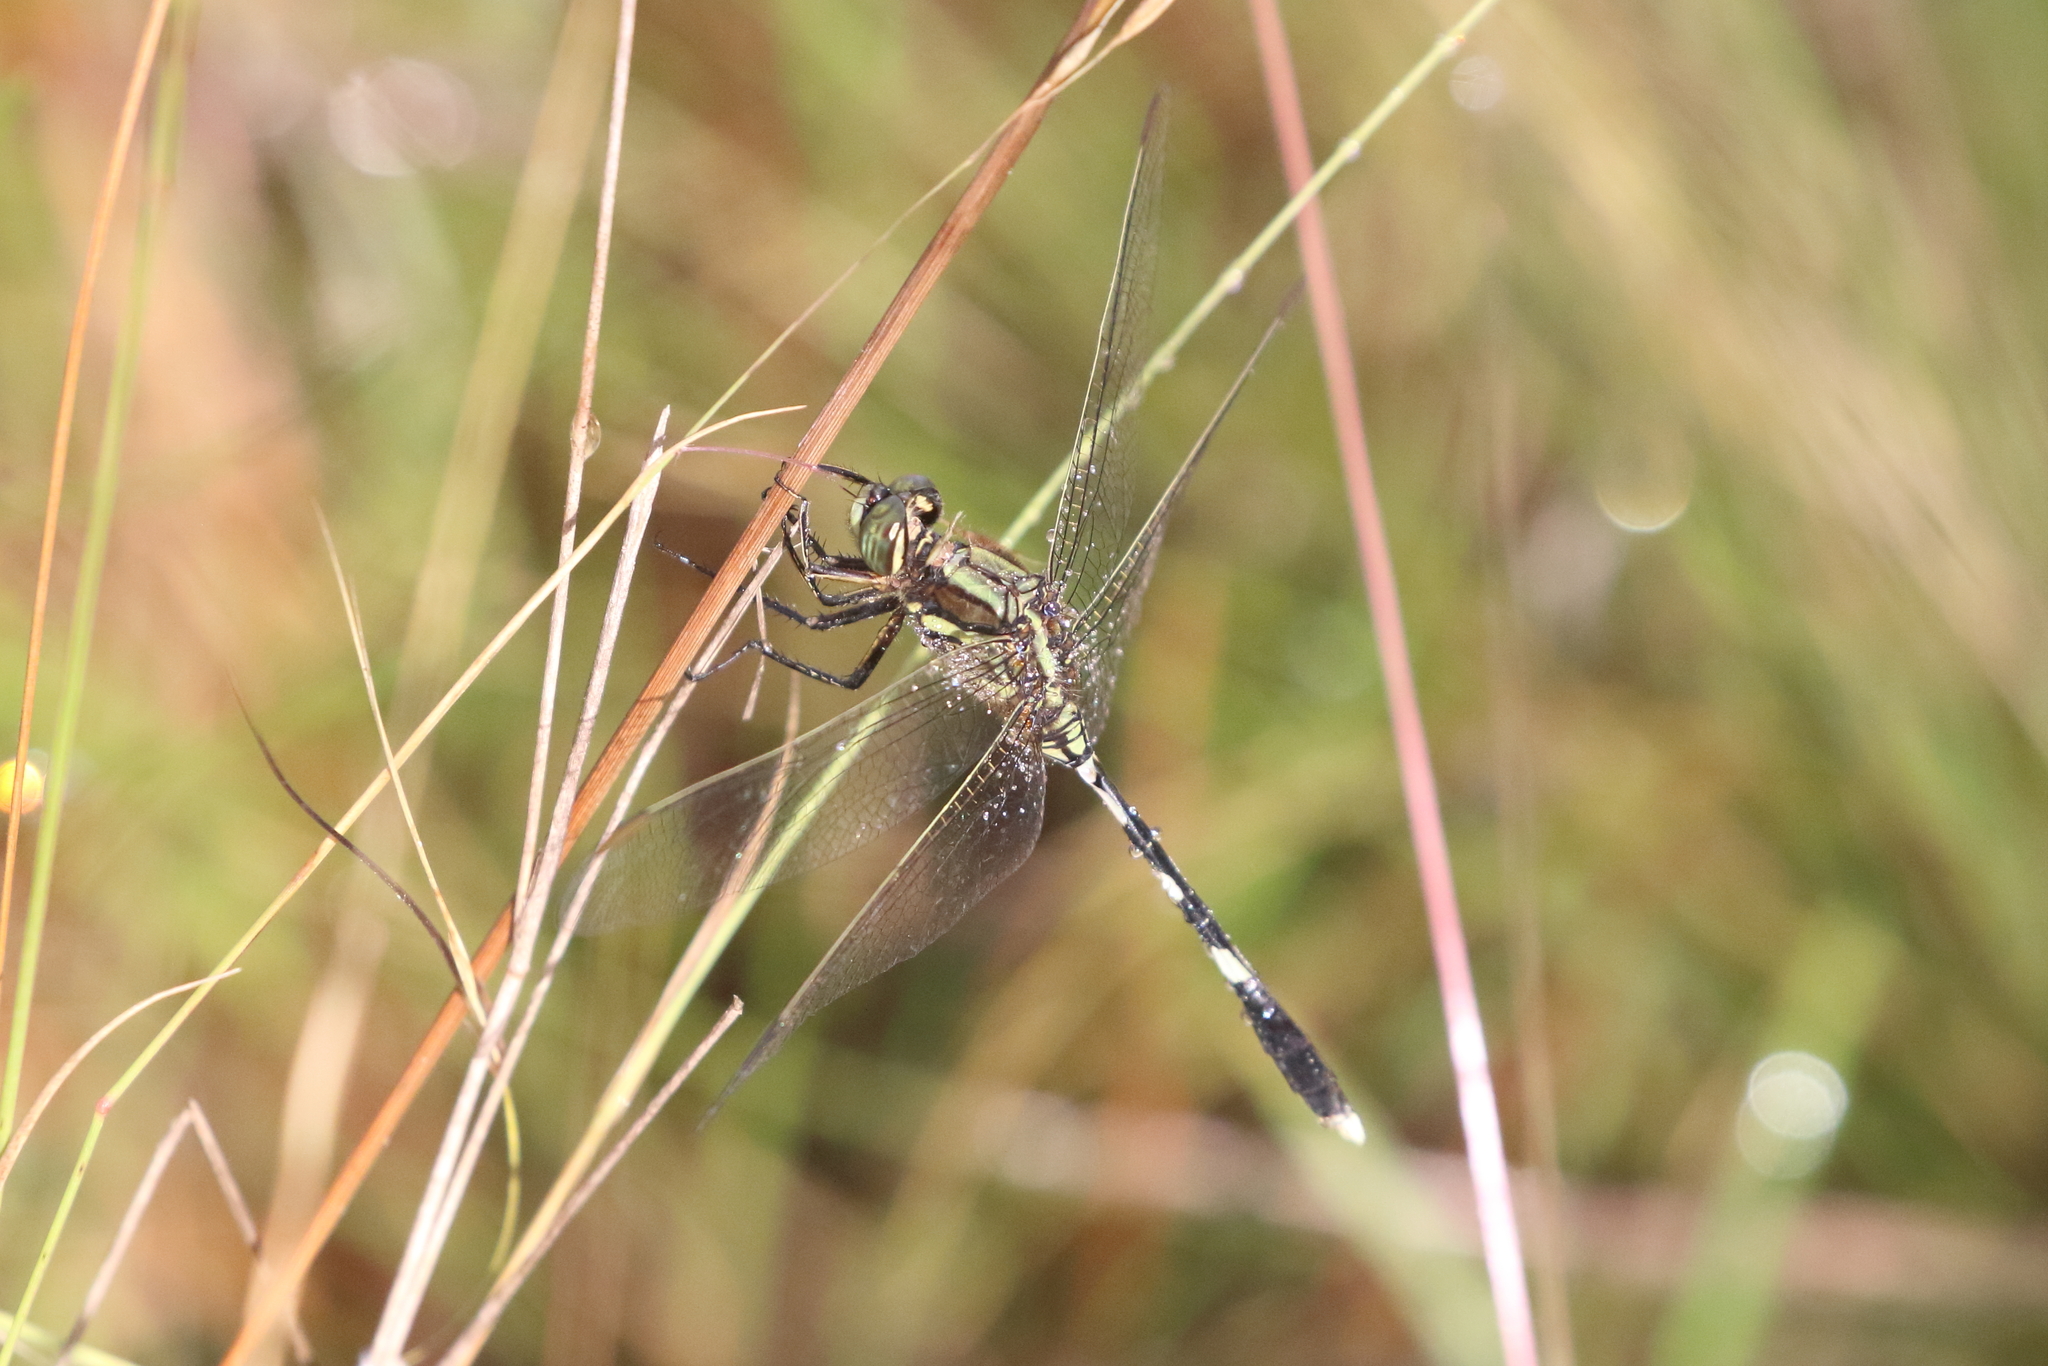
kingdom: Animalia
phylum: Arthropoda
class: Insecta
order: Odonata
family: Libellulidae
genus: Orthetrum
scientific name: Orthetrum sabina
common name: Slender skimmer
